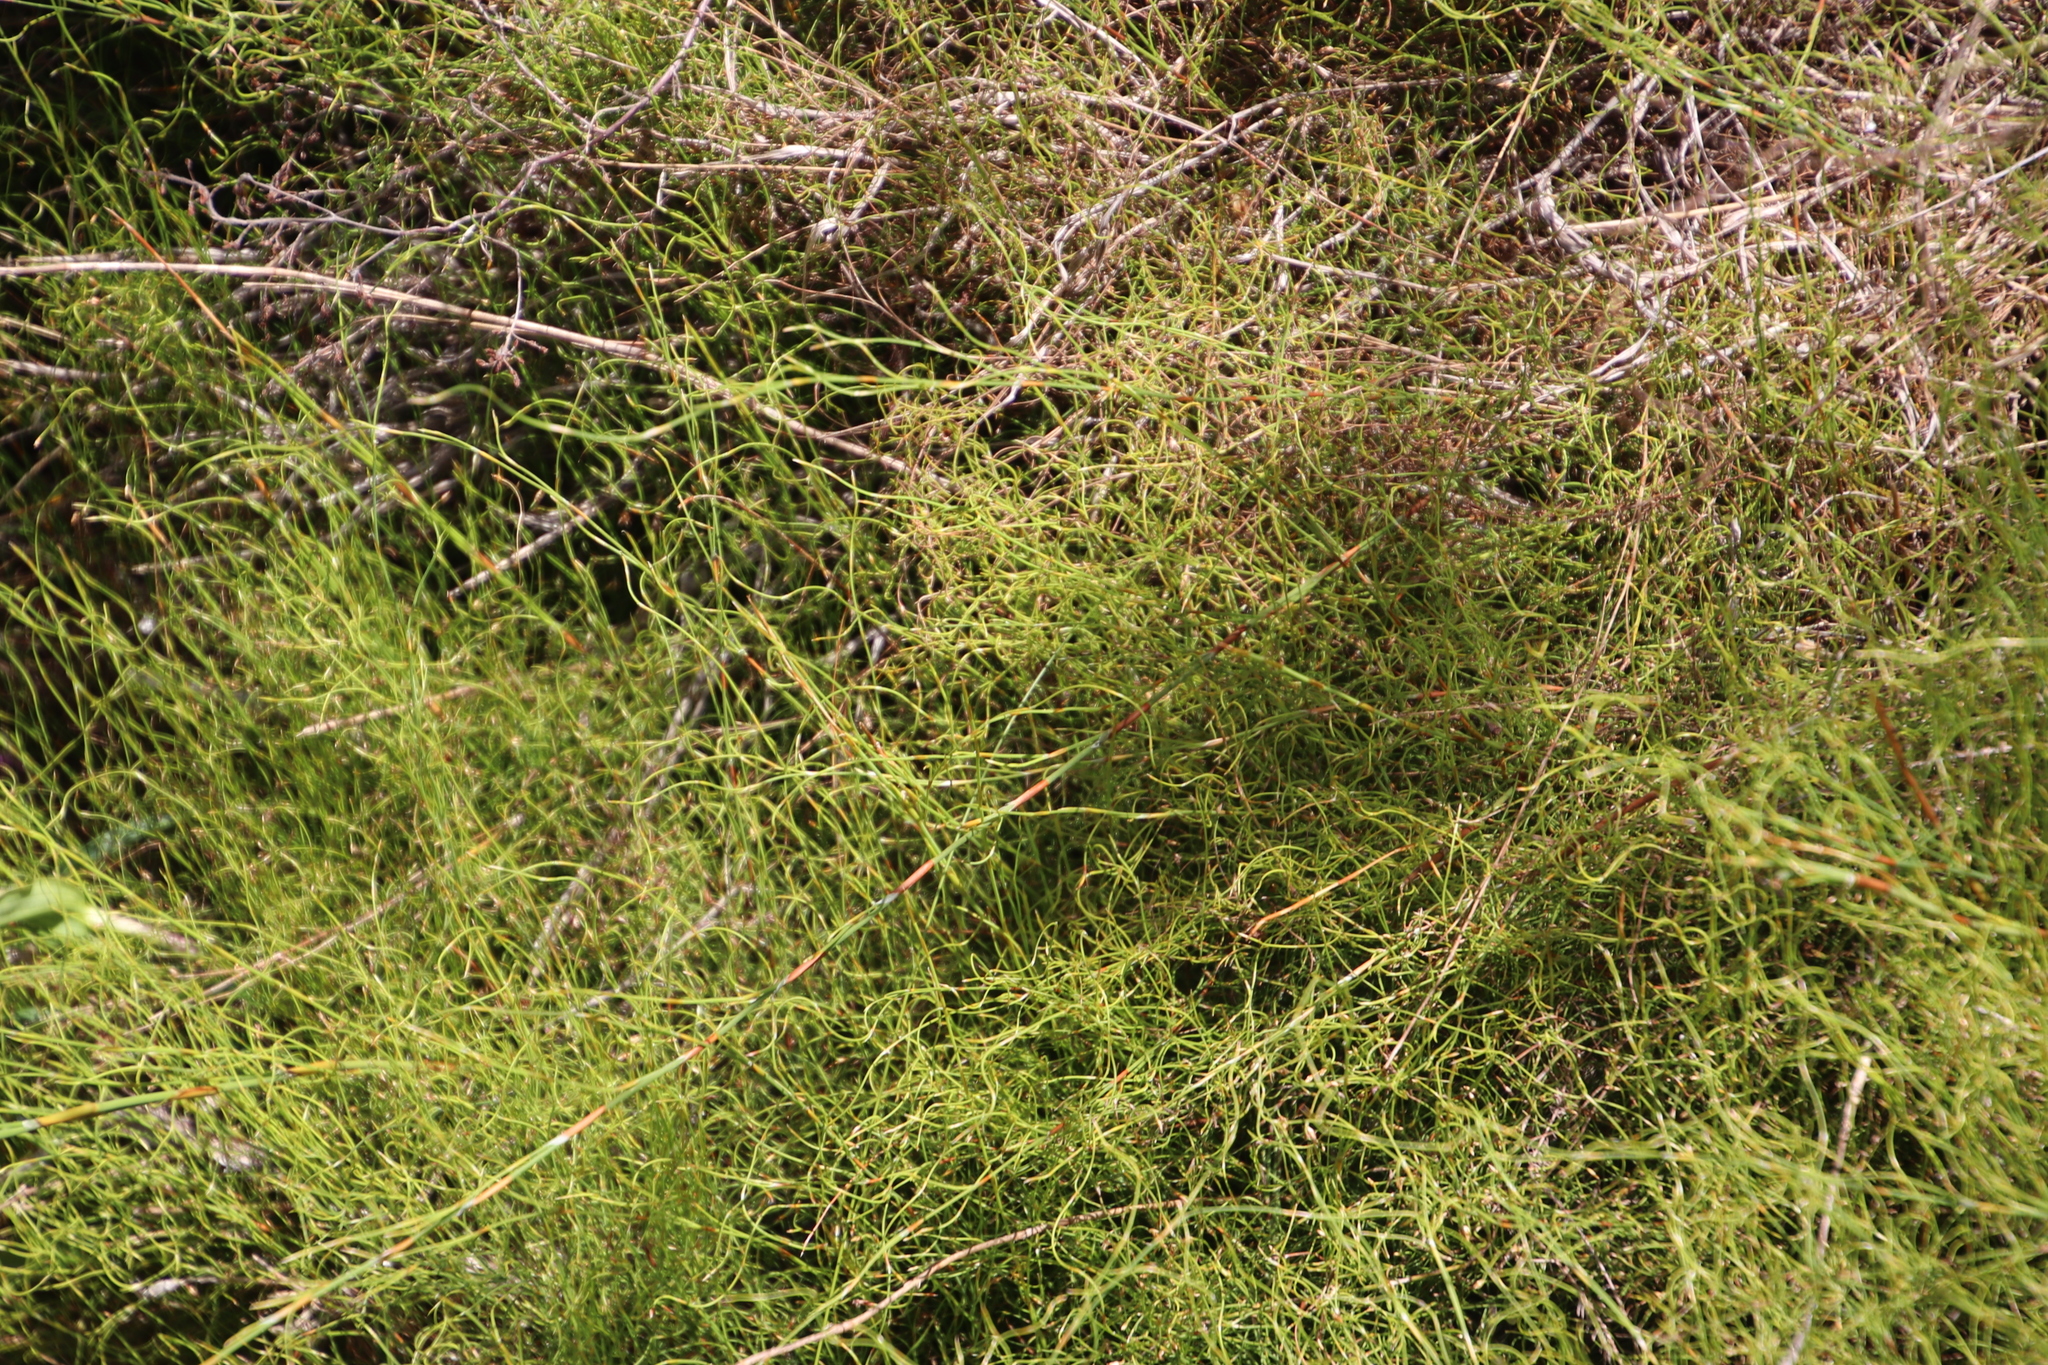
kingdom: Plantae
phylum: Tracheophyta
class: Liliopsida
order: Poales
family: Restionaceae
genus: Restio
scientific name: Restio perplexus
